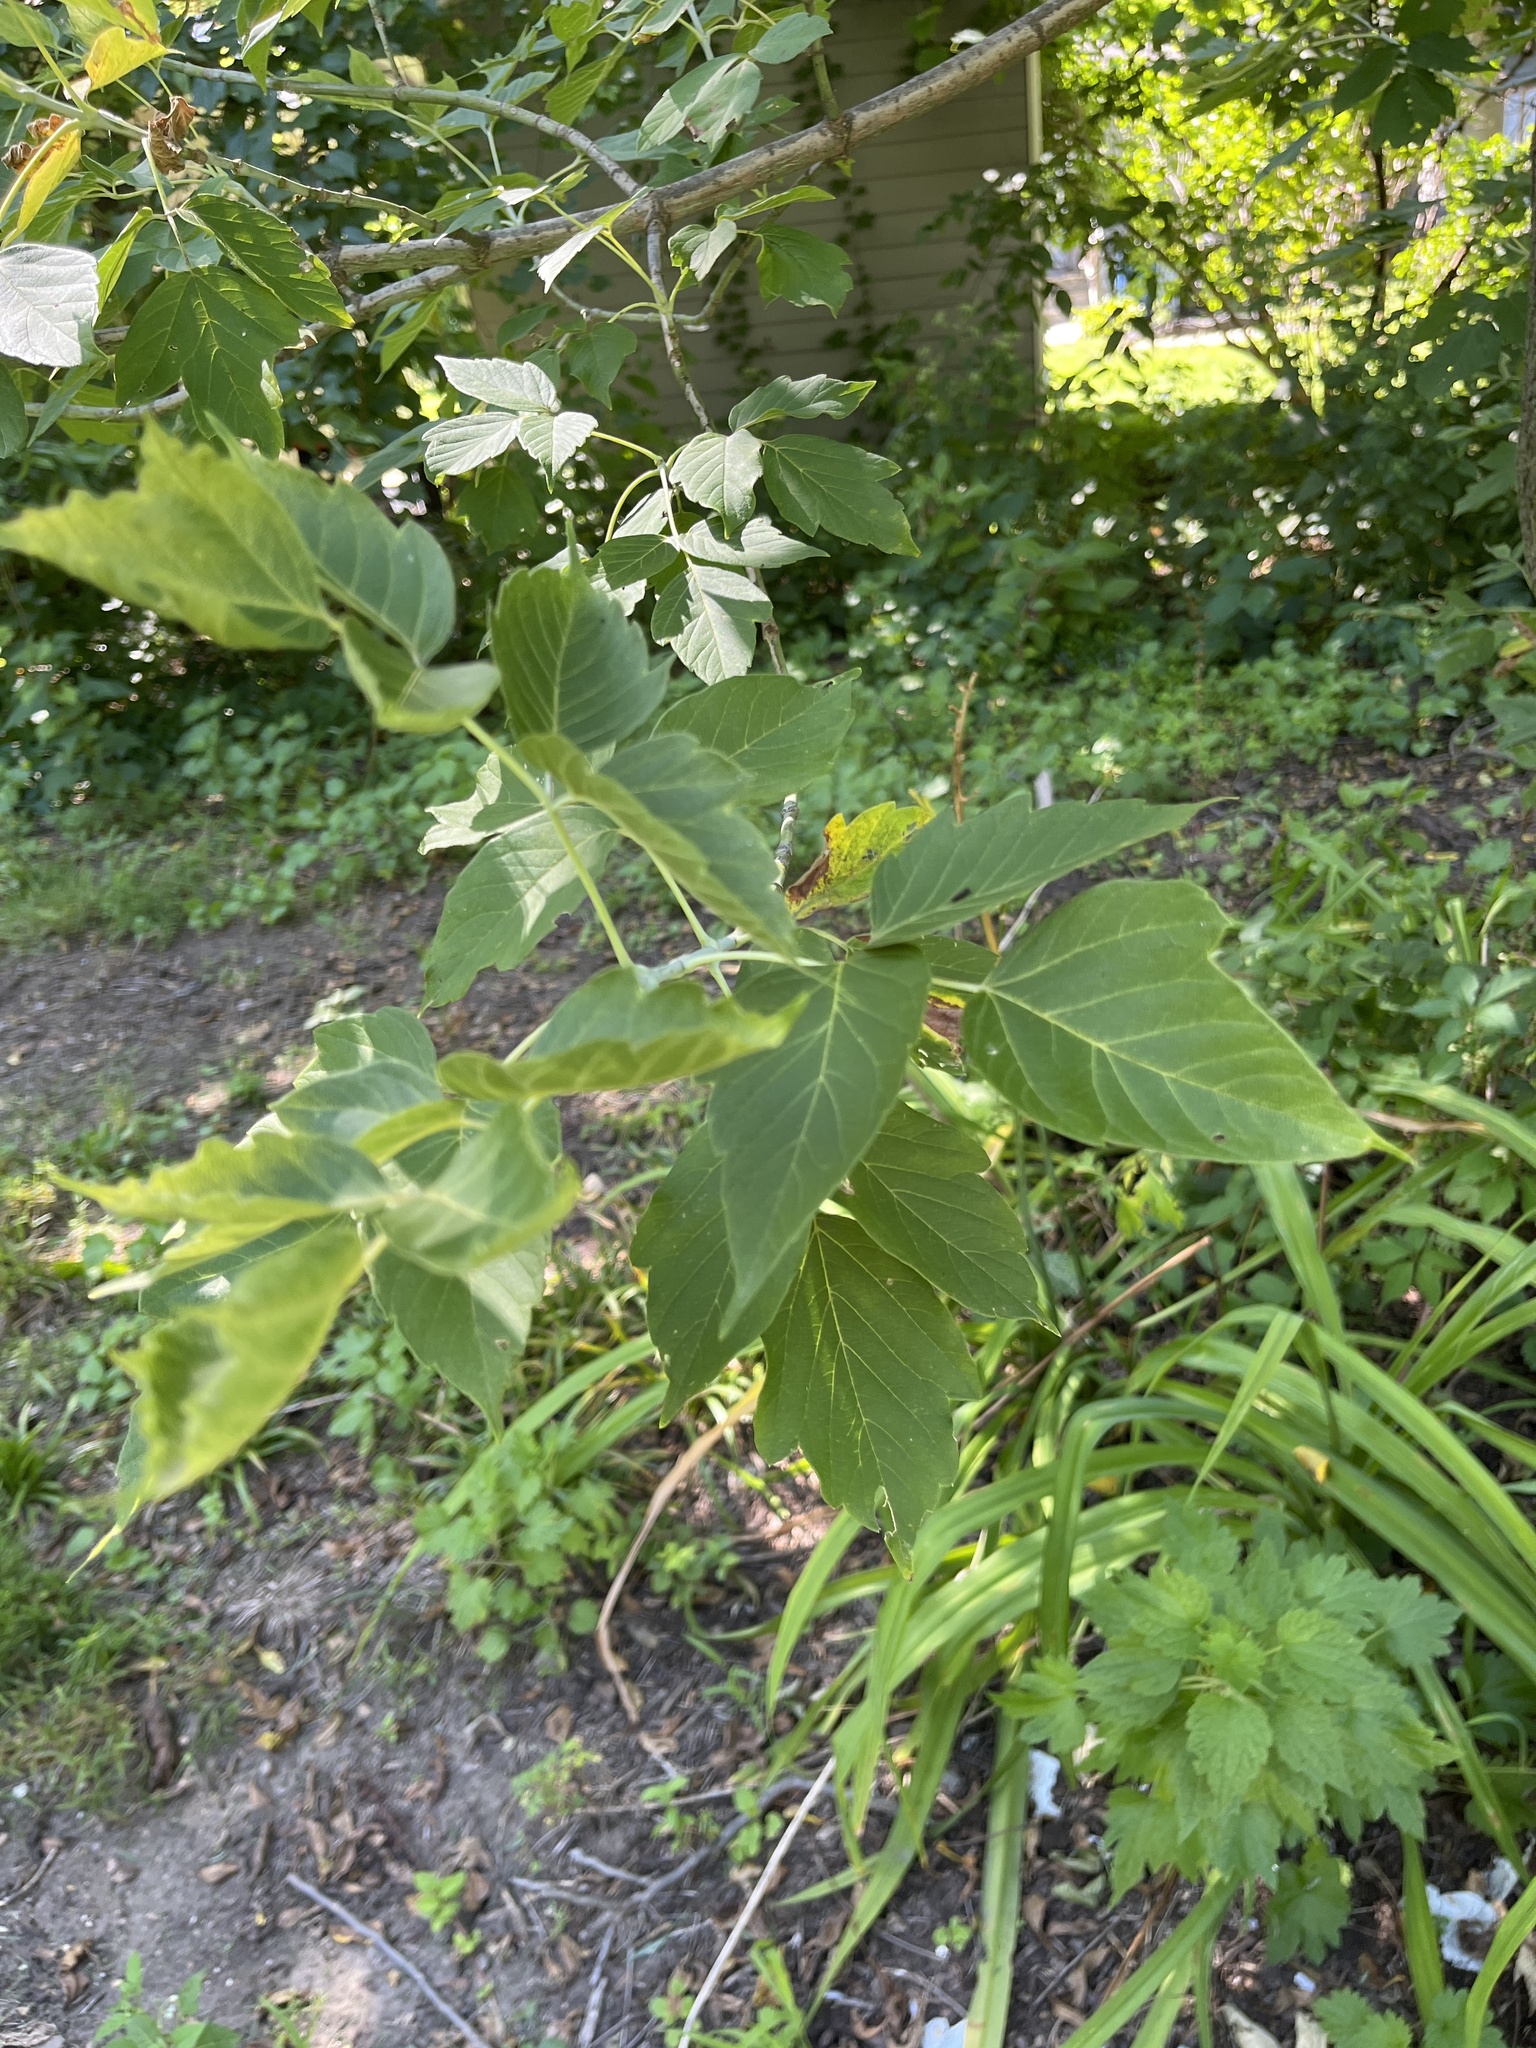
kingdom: Plantae
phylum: Tracheophyta
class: Magnoliopsida
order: Sapindales
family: Sapindaceae
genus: Acer
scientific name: Acer negundo
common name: Ashleaf maple
